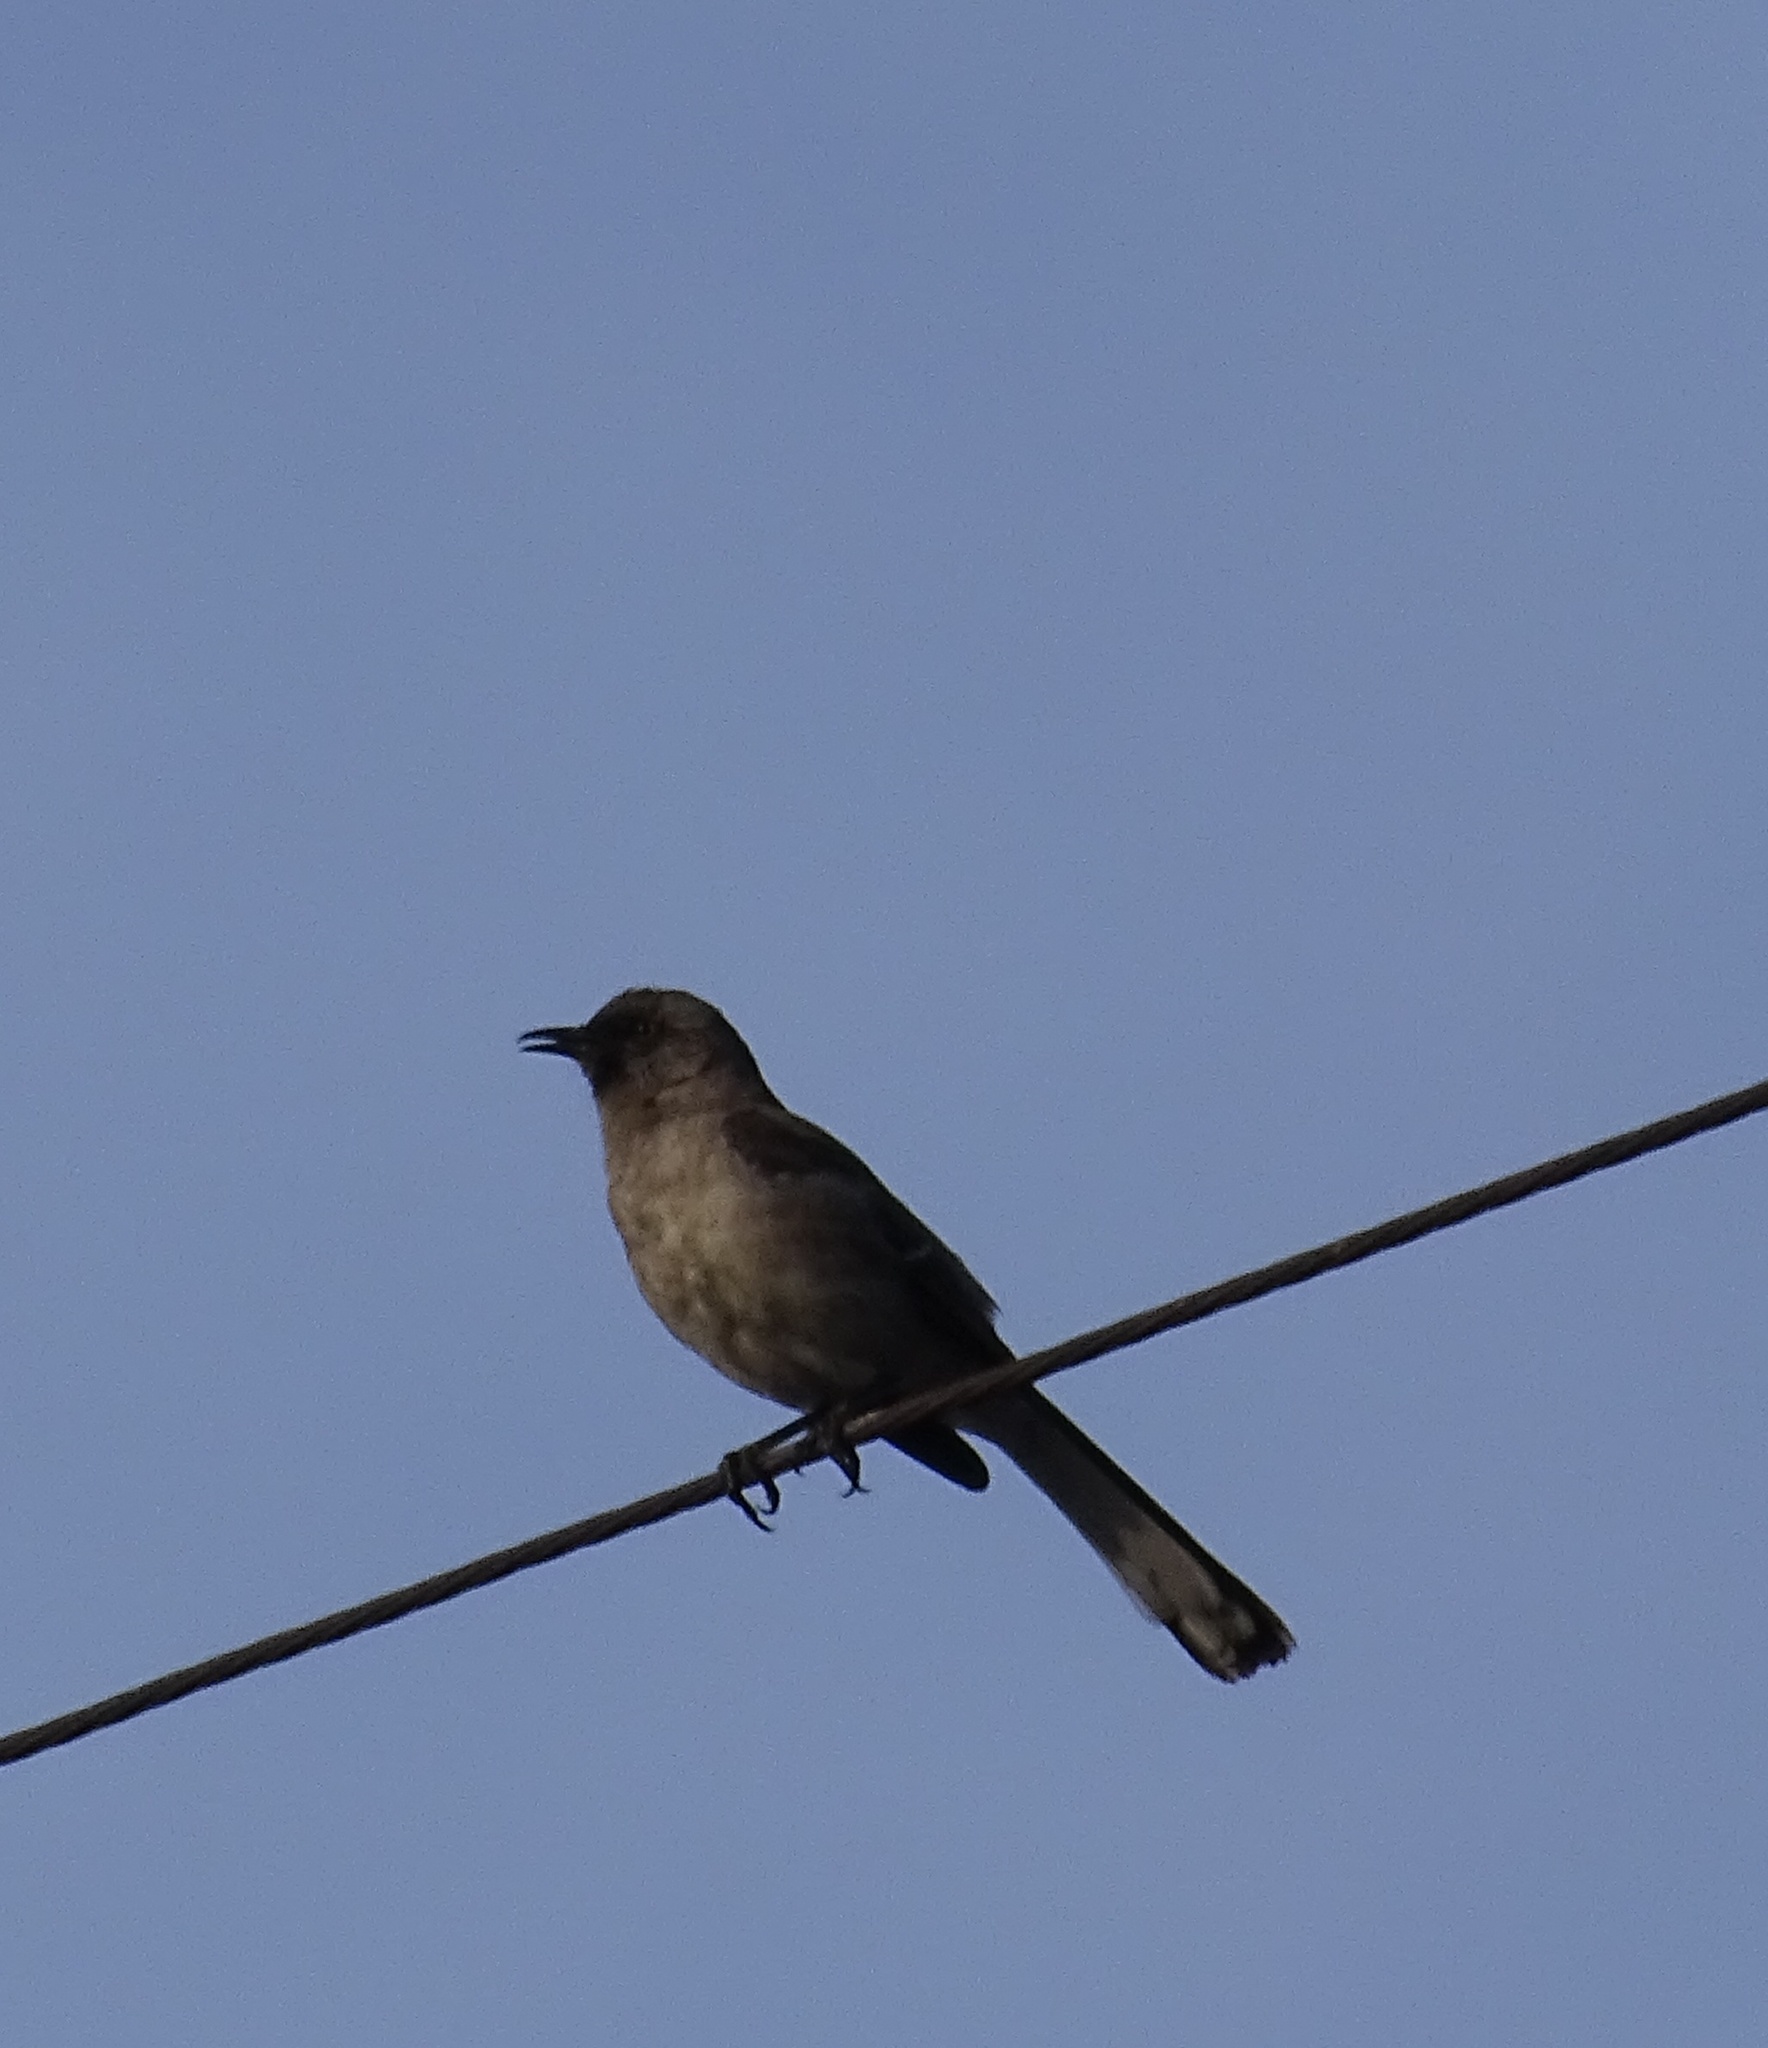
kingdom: Animalia
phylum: Chordata
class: Aves
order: Passeriformes
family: Mimidae
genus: Mimus
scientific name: Mimus polyglottos
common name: Northern mockingbird
